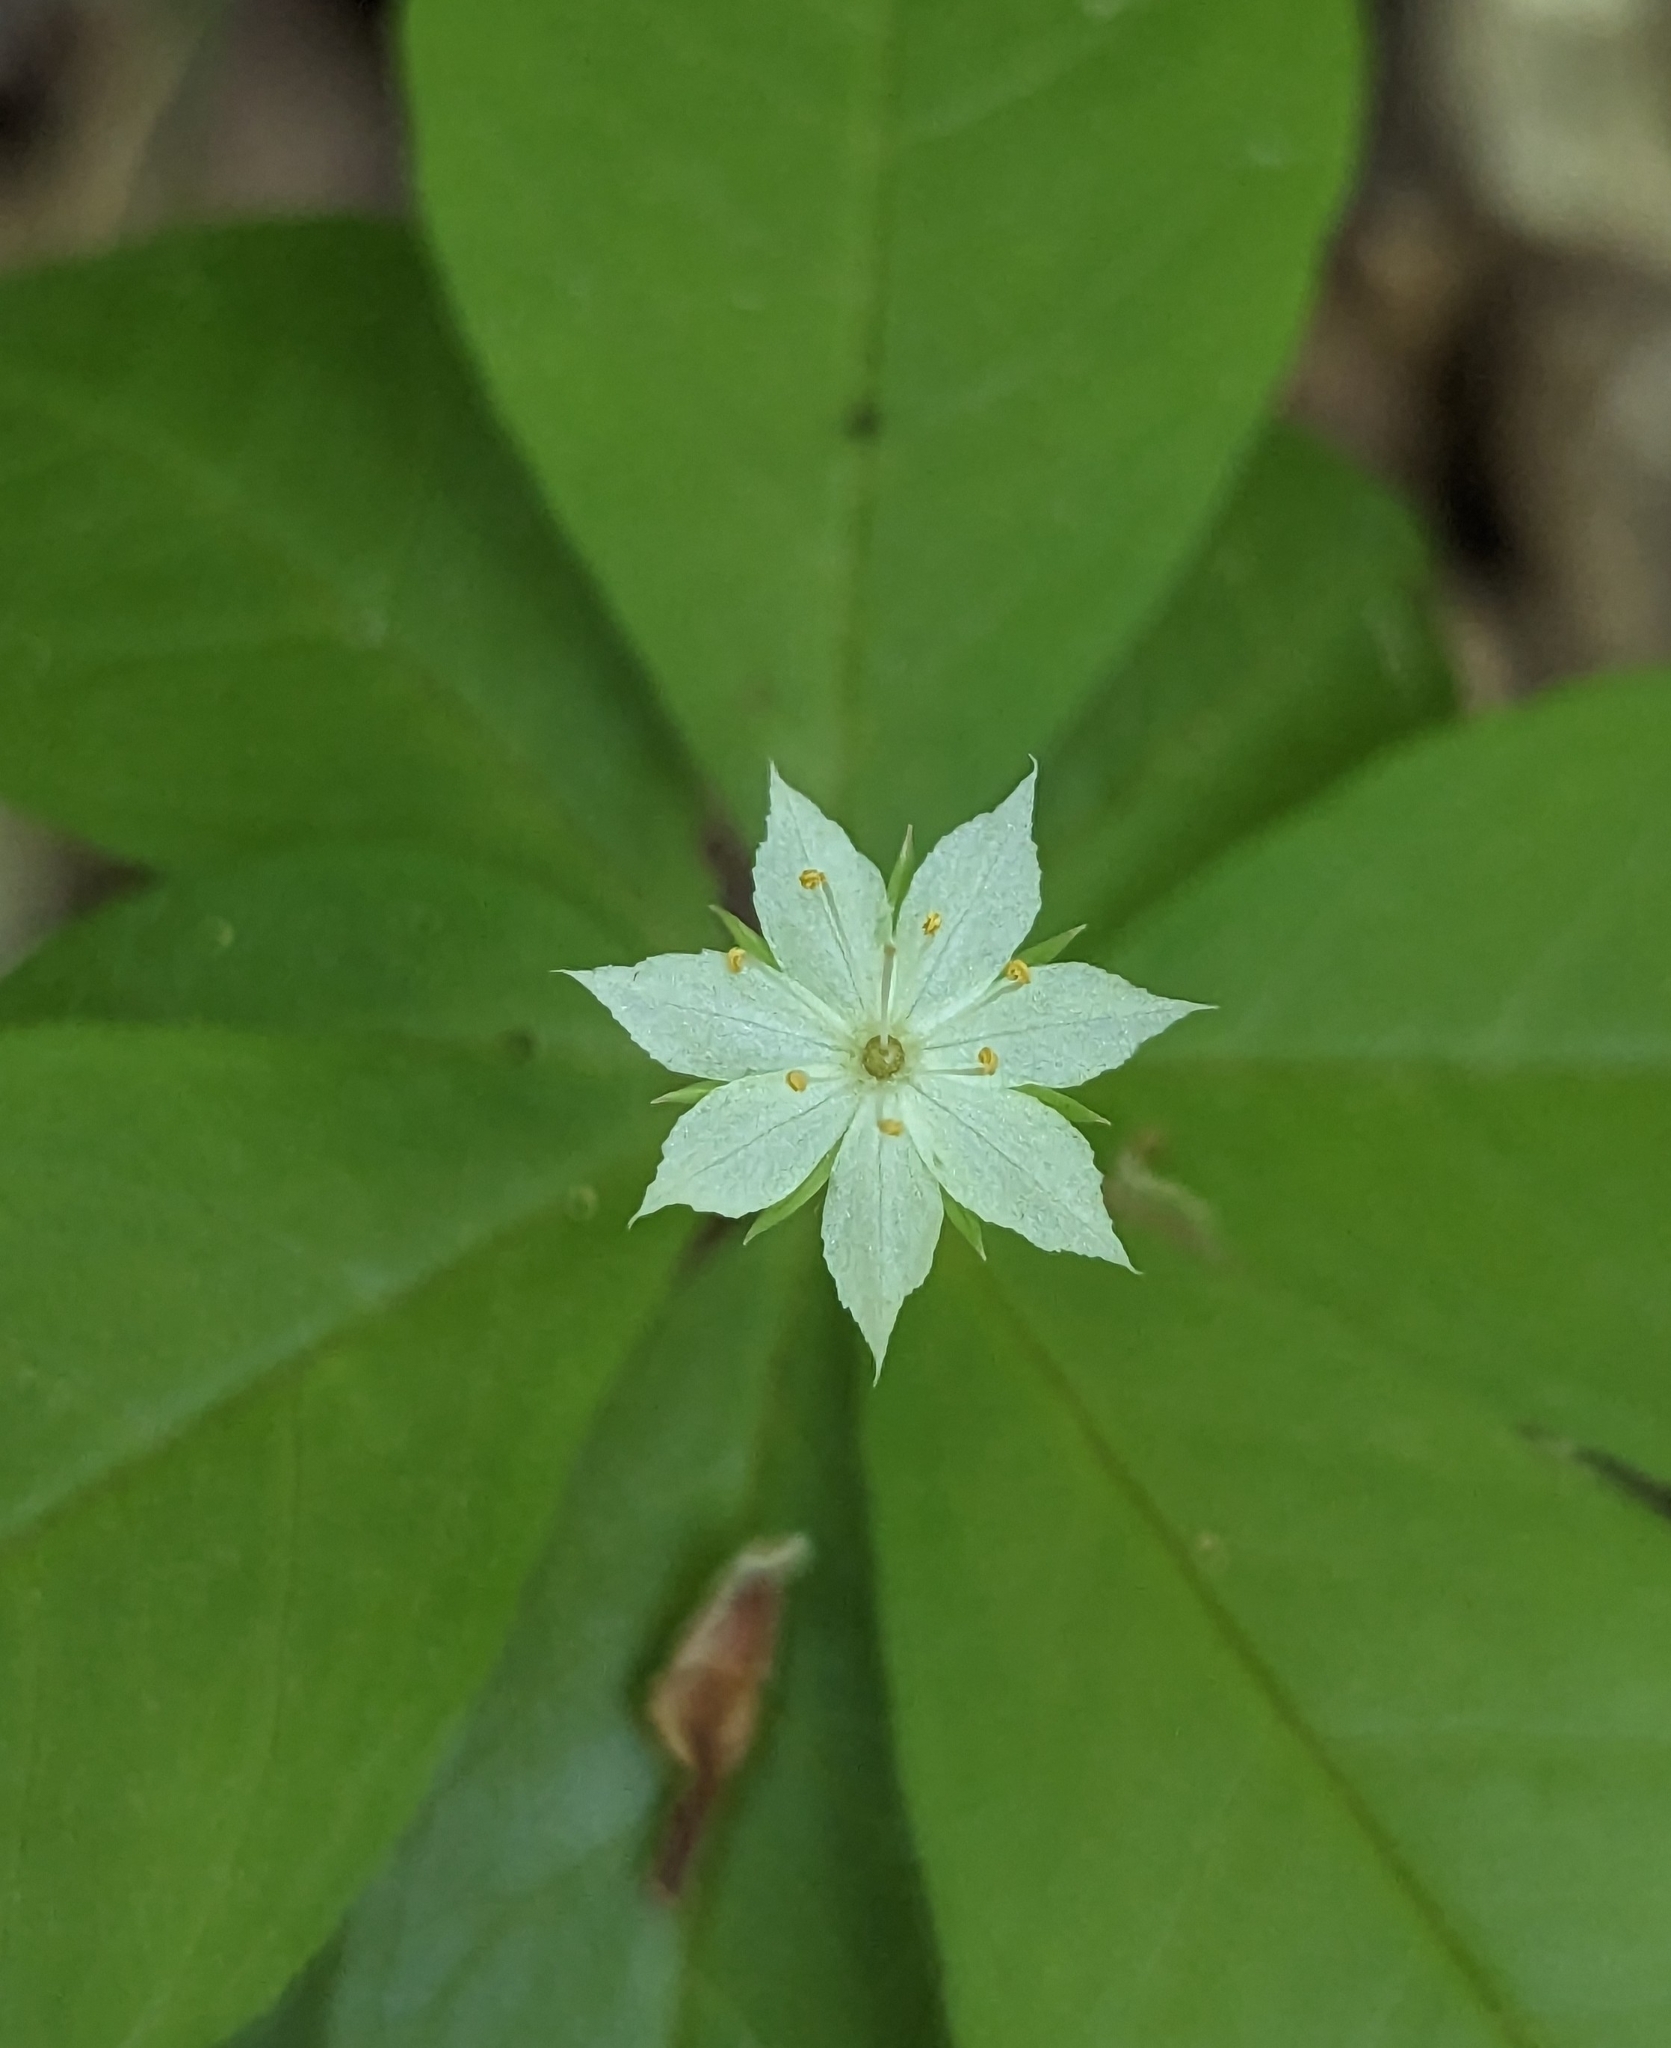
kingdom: Plantae
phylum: Tracheophyta
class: Magnoliopsida
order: Ericales
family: Primulaceae
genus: Lysimachia
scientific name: Lysimachia borealis
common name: American starflower
